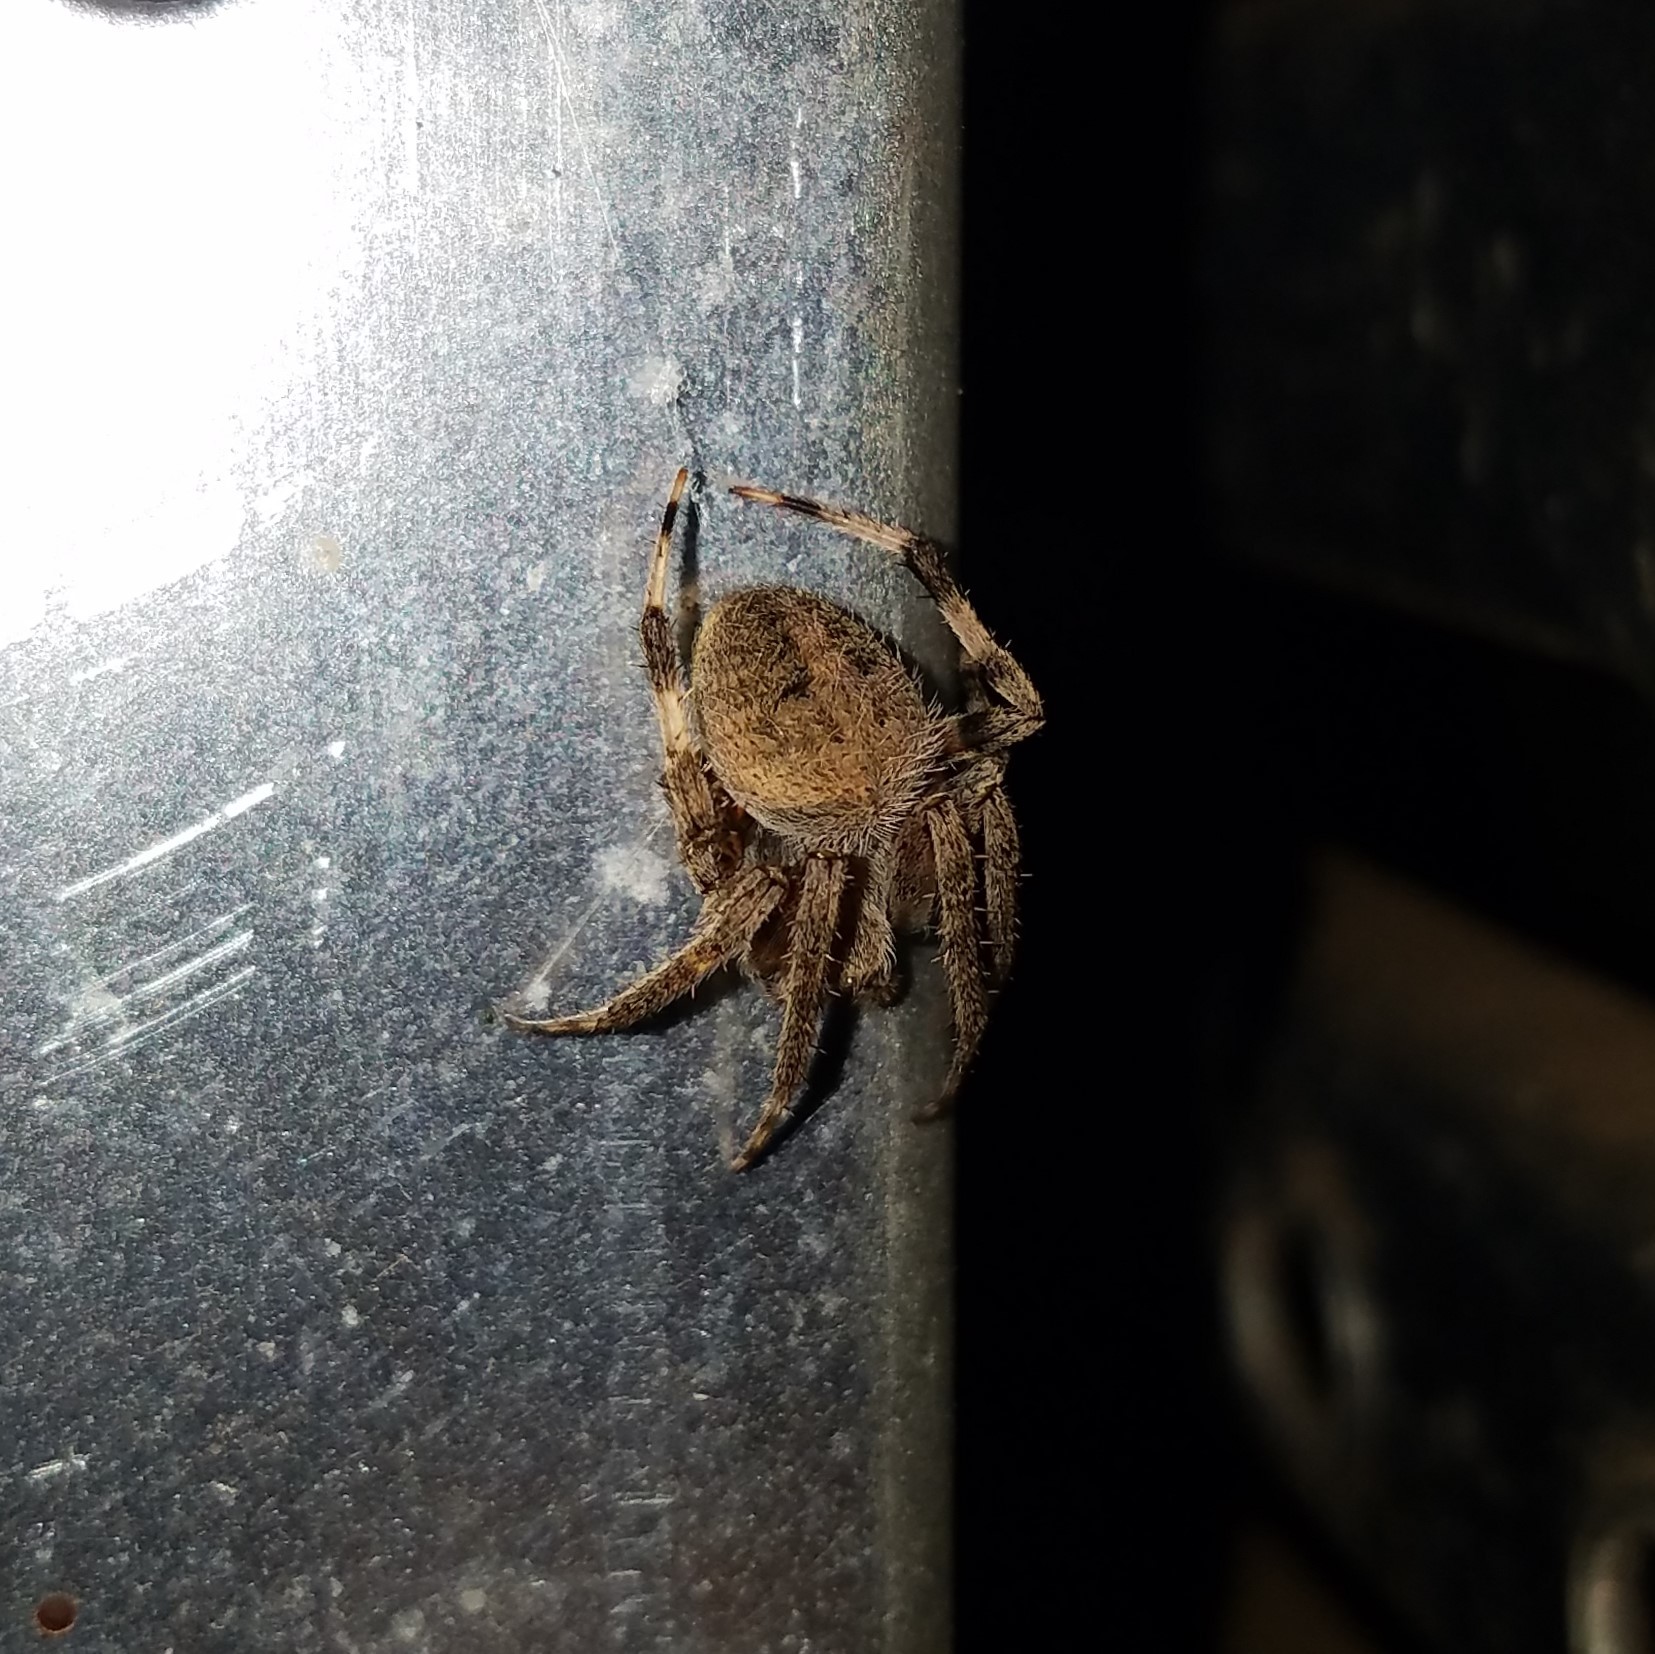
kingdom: Animalia
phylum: Arthropoda
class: Arachnida
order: Araneae
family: Araneidae
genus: Neoscona
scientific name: Neoscona crucifera
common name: Spotted orbweaver
